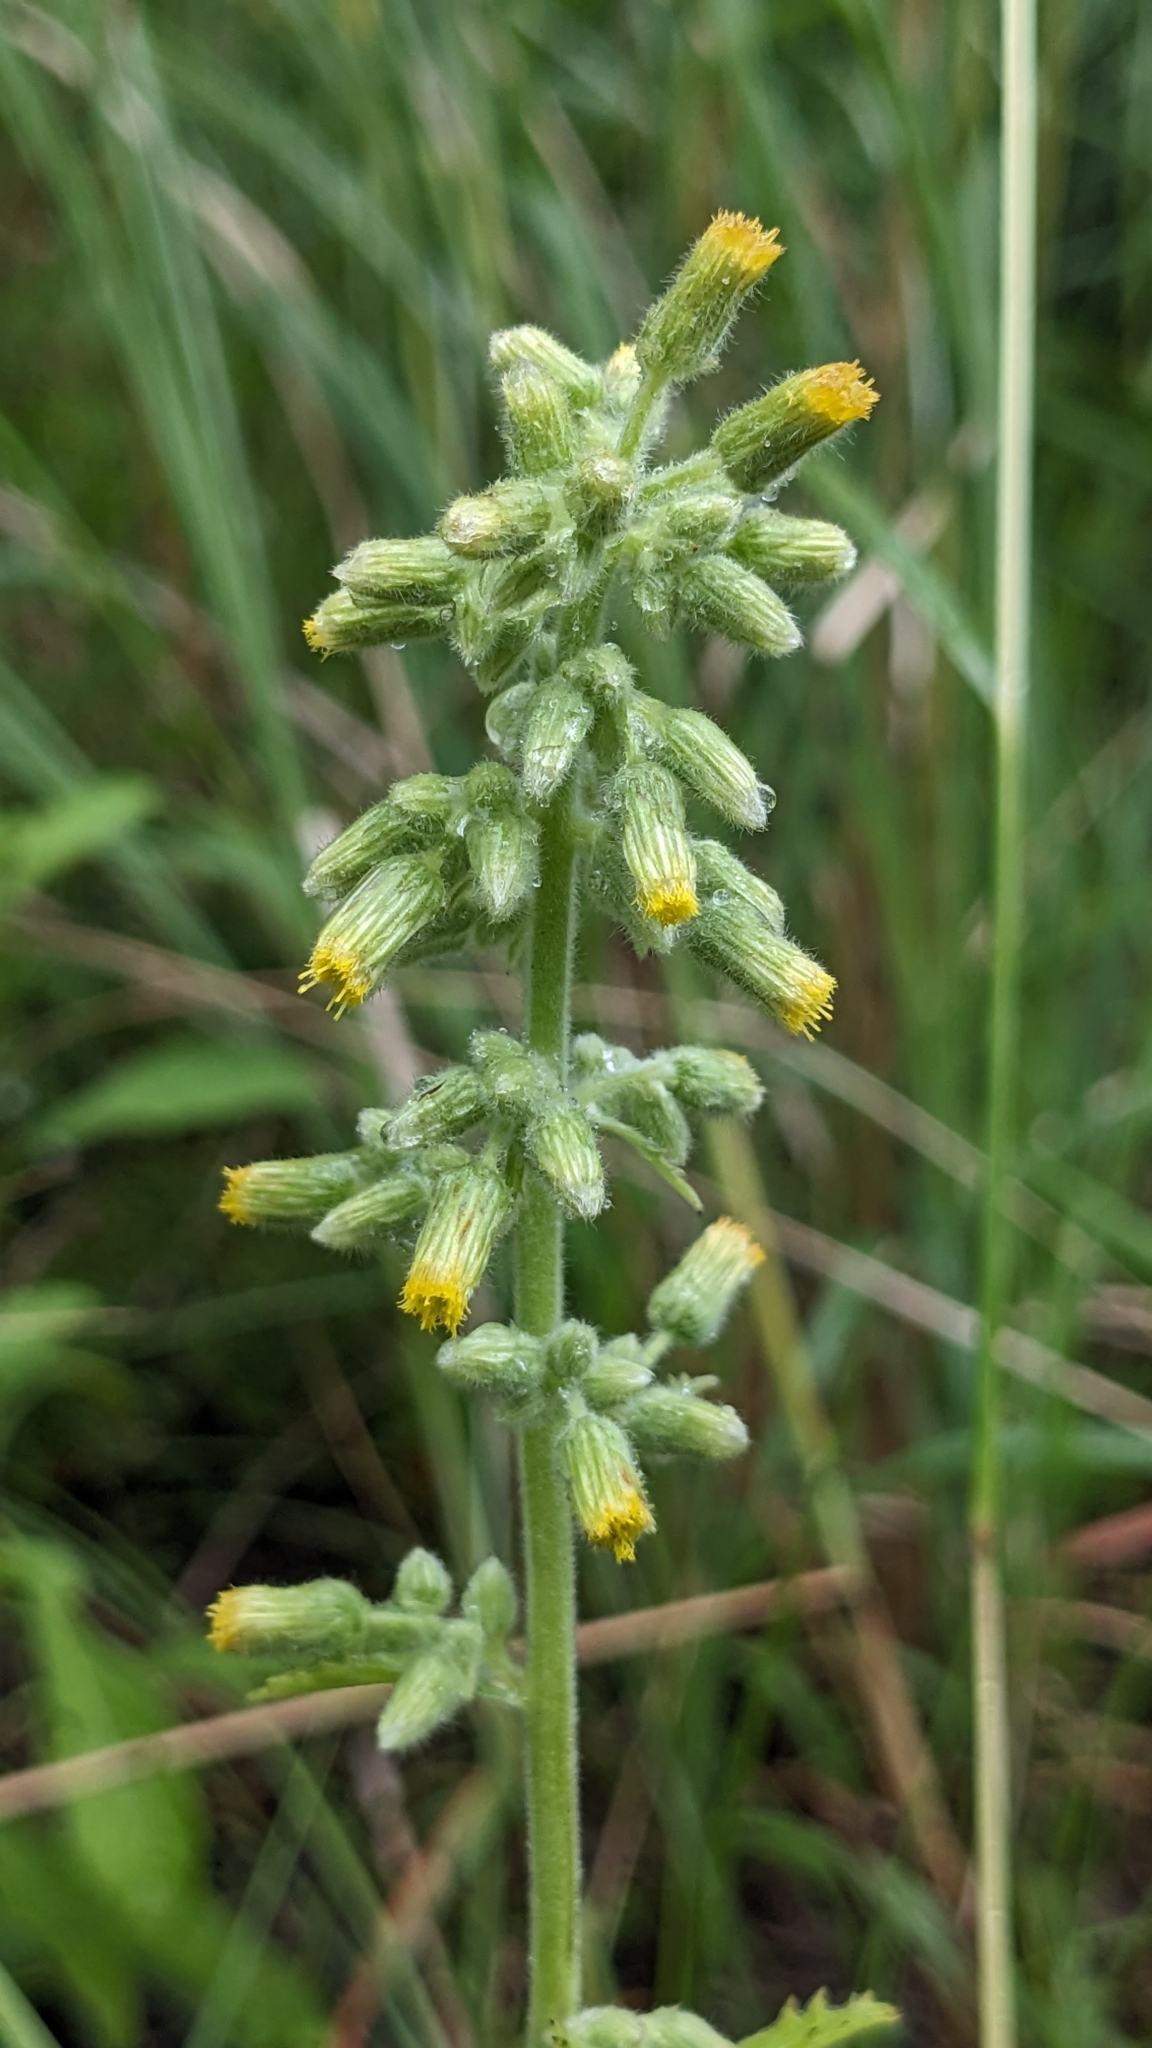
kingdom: Plantae
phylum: Tracheophyta
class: Magnoliopsida
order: Asterales
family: Asteraceae
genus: Blumea
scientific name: Blumea oblongifolia
